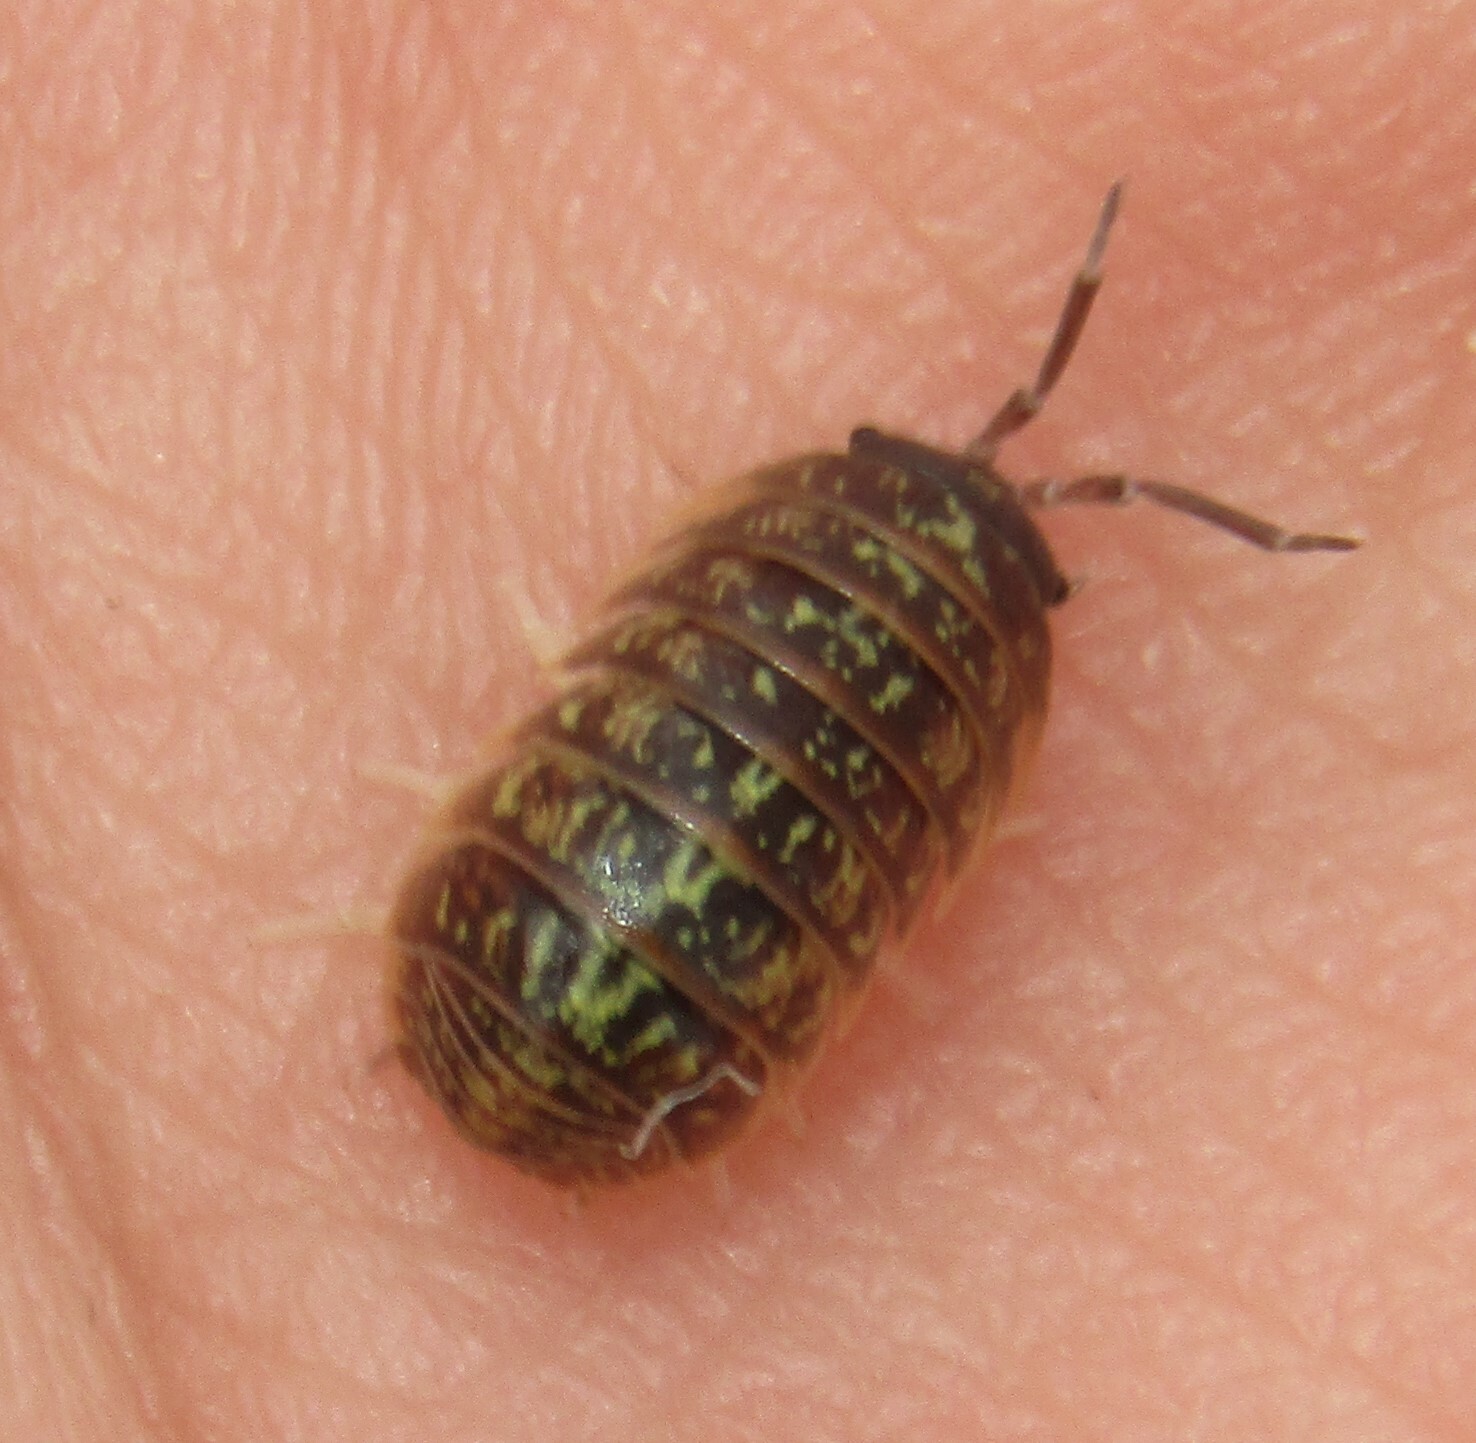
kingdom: Animalia
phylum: Arthropoda
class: Malacostraca
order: Isopoda
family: Armadillidiidae
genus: Armadillidium
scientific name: Armadillidium versicolor
